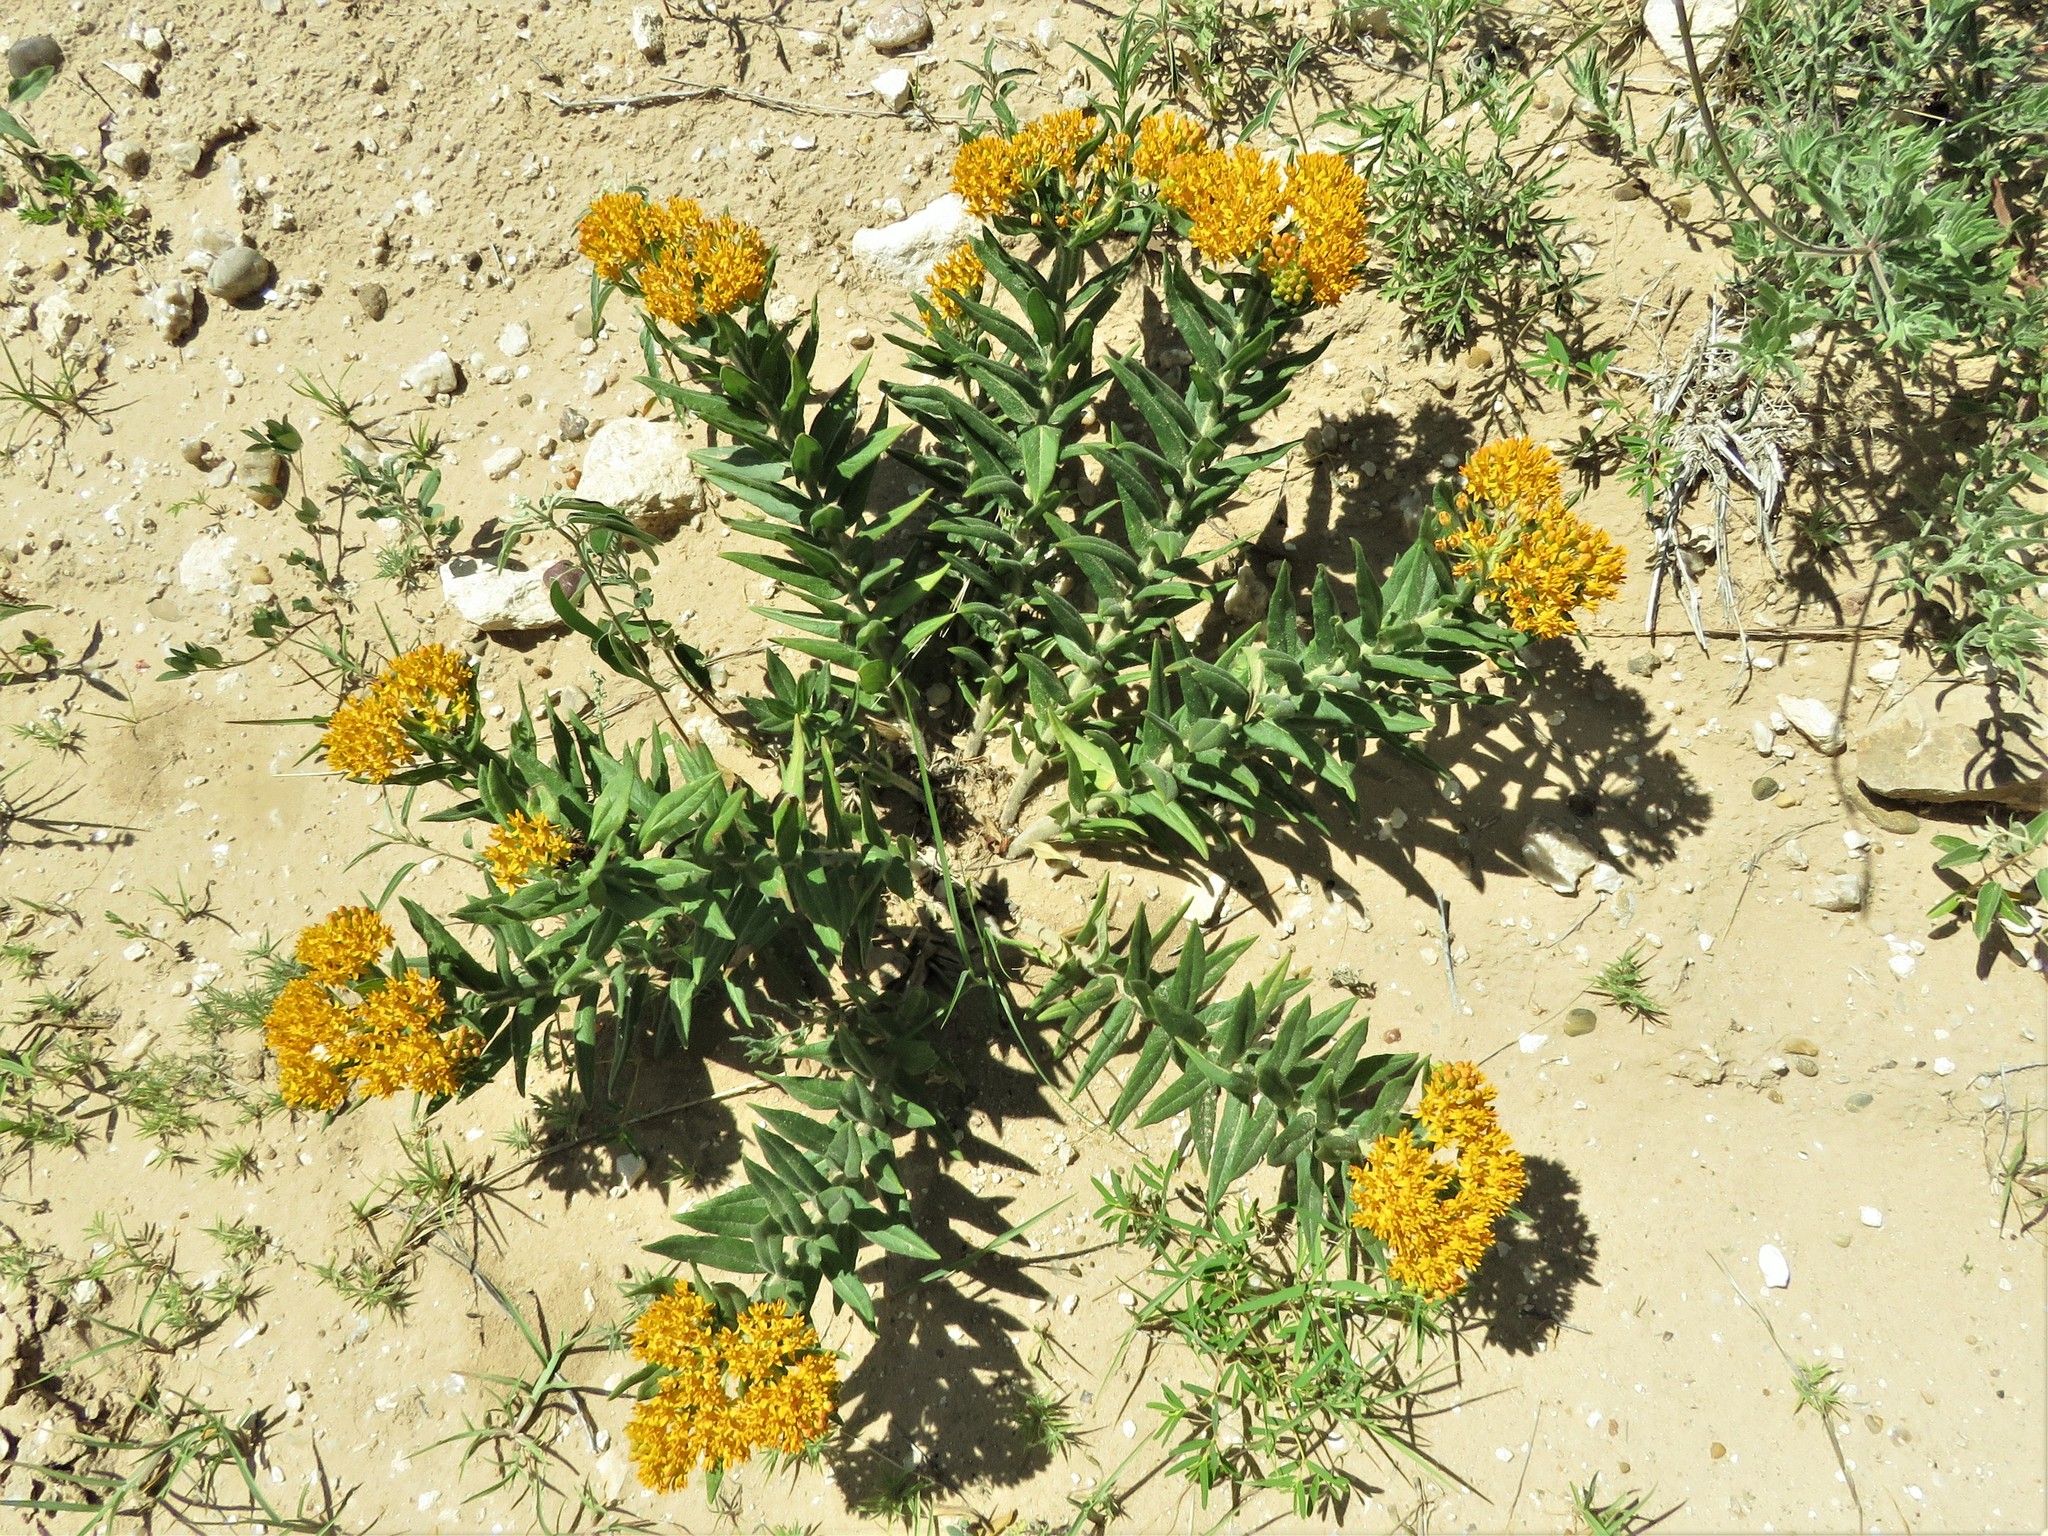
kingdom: Plantae
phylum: Tracheophyta
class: Magnoliopsida
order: Gentianales
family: Apocynaceae
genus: Asclepias
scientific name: Asclepias tuberosa
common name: Butterfly milkweed
